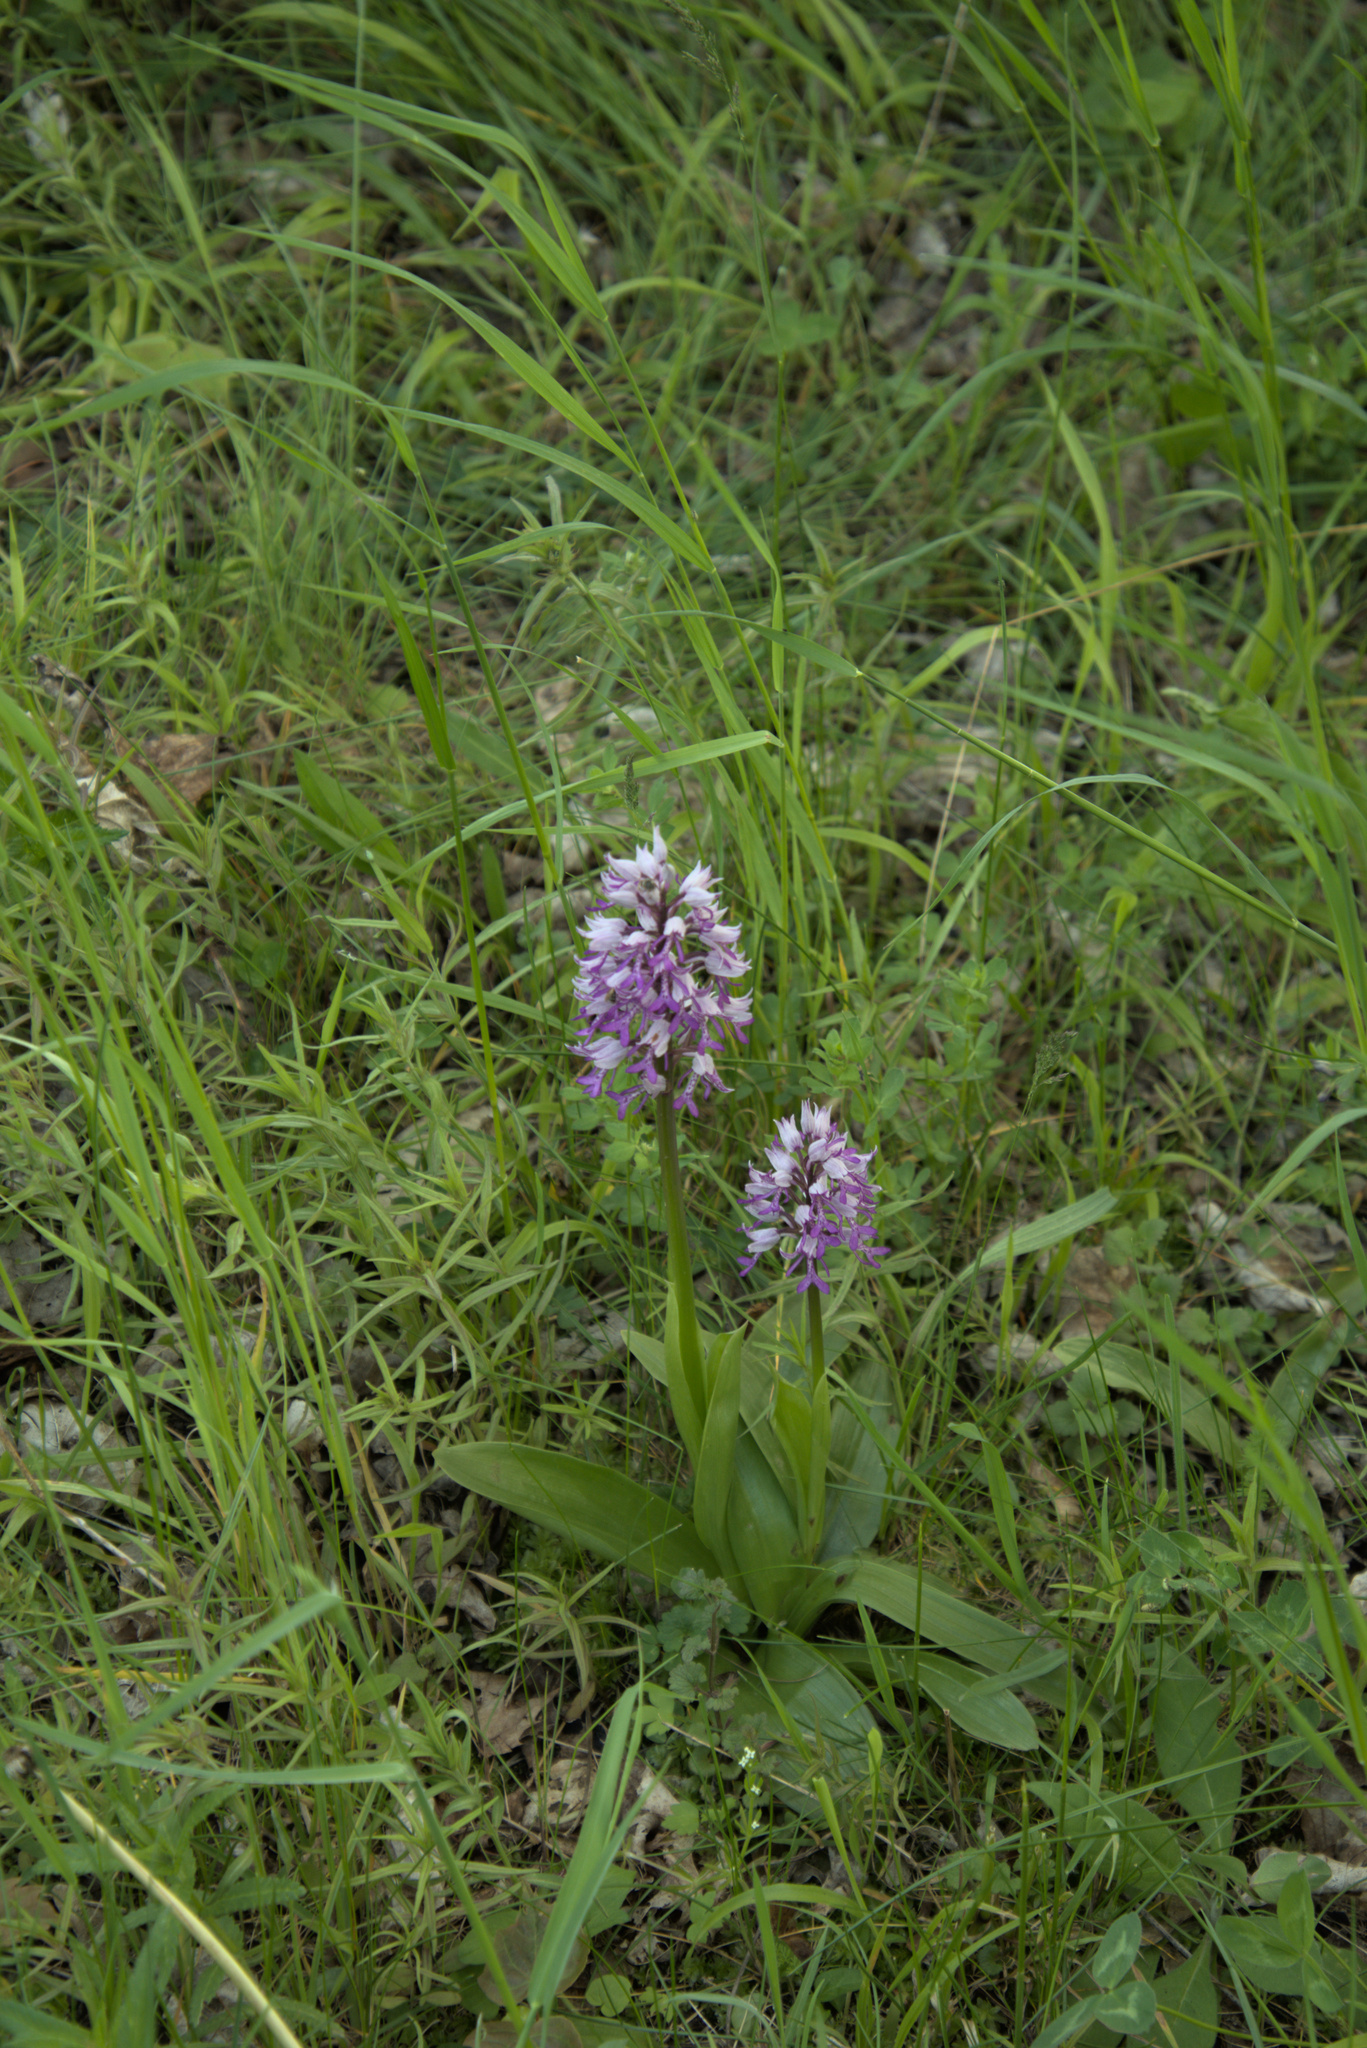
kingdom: Plantae
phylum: Tracheophyta
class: Liliopsida
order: Asparagales
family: Orchidaceae
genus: Orchis
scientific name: Orchis militaris
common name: Military orchid
